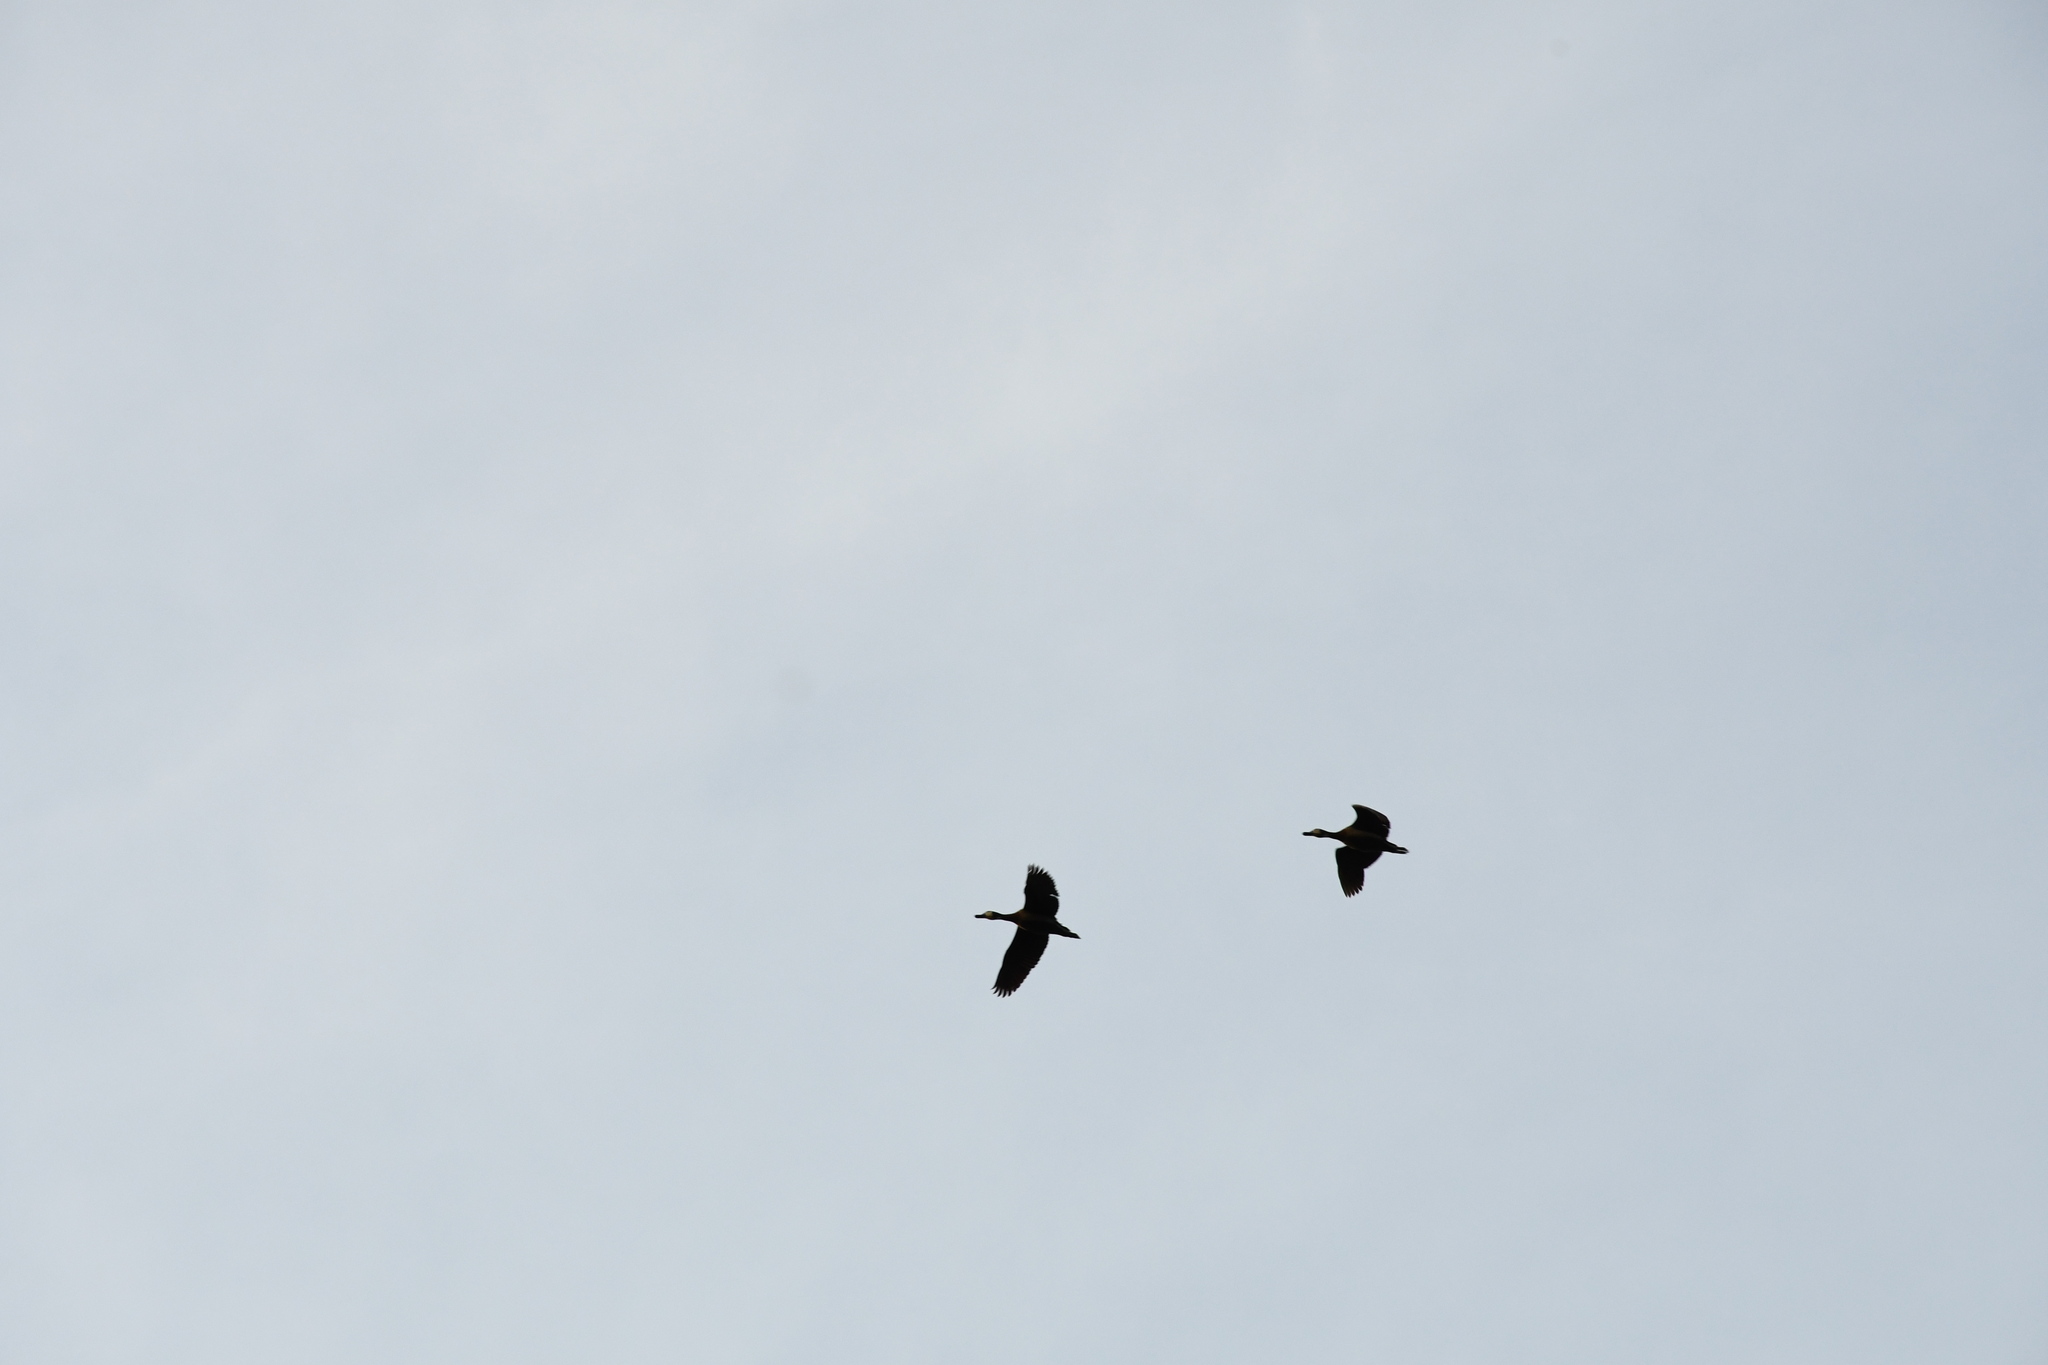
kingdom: Animalia
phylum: Chordata
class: Aves
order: Anseriformes
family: Anatidae
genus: Dendrocygna
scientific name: Dendrocygna viduata
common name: White-faced whistling duck
